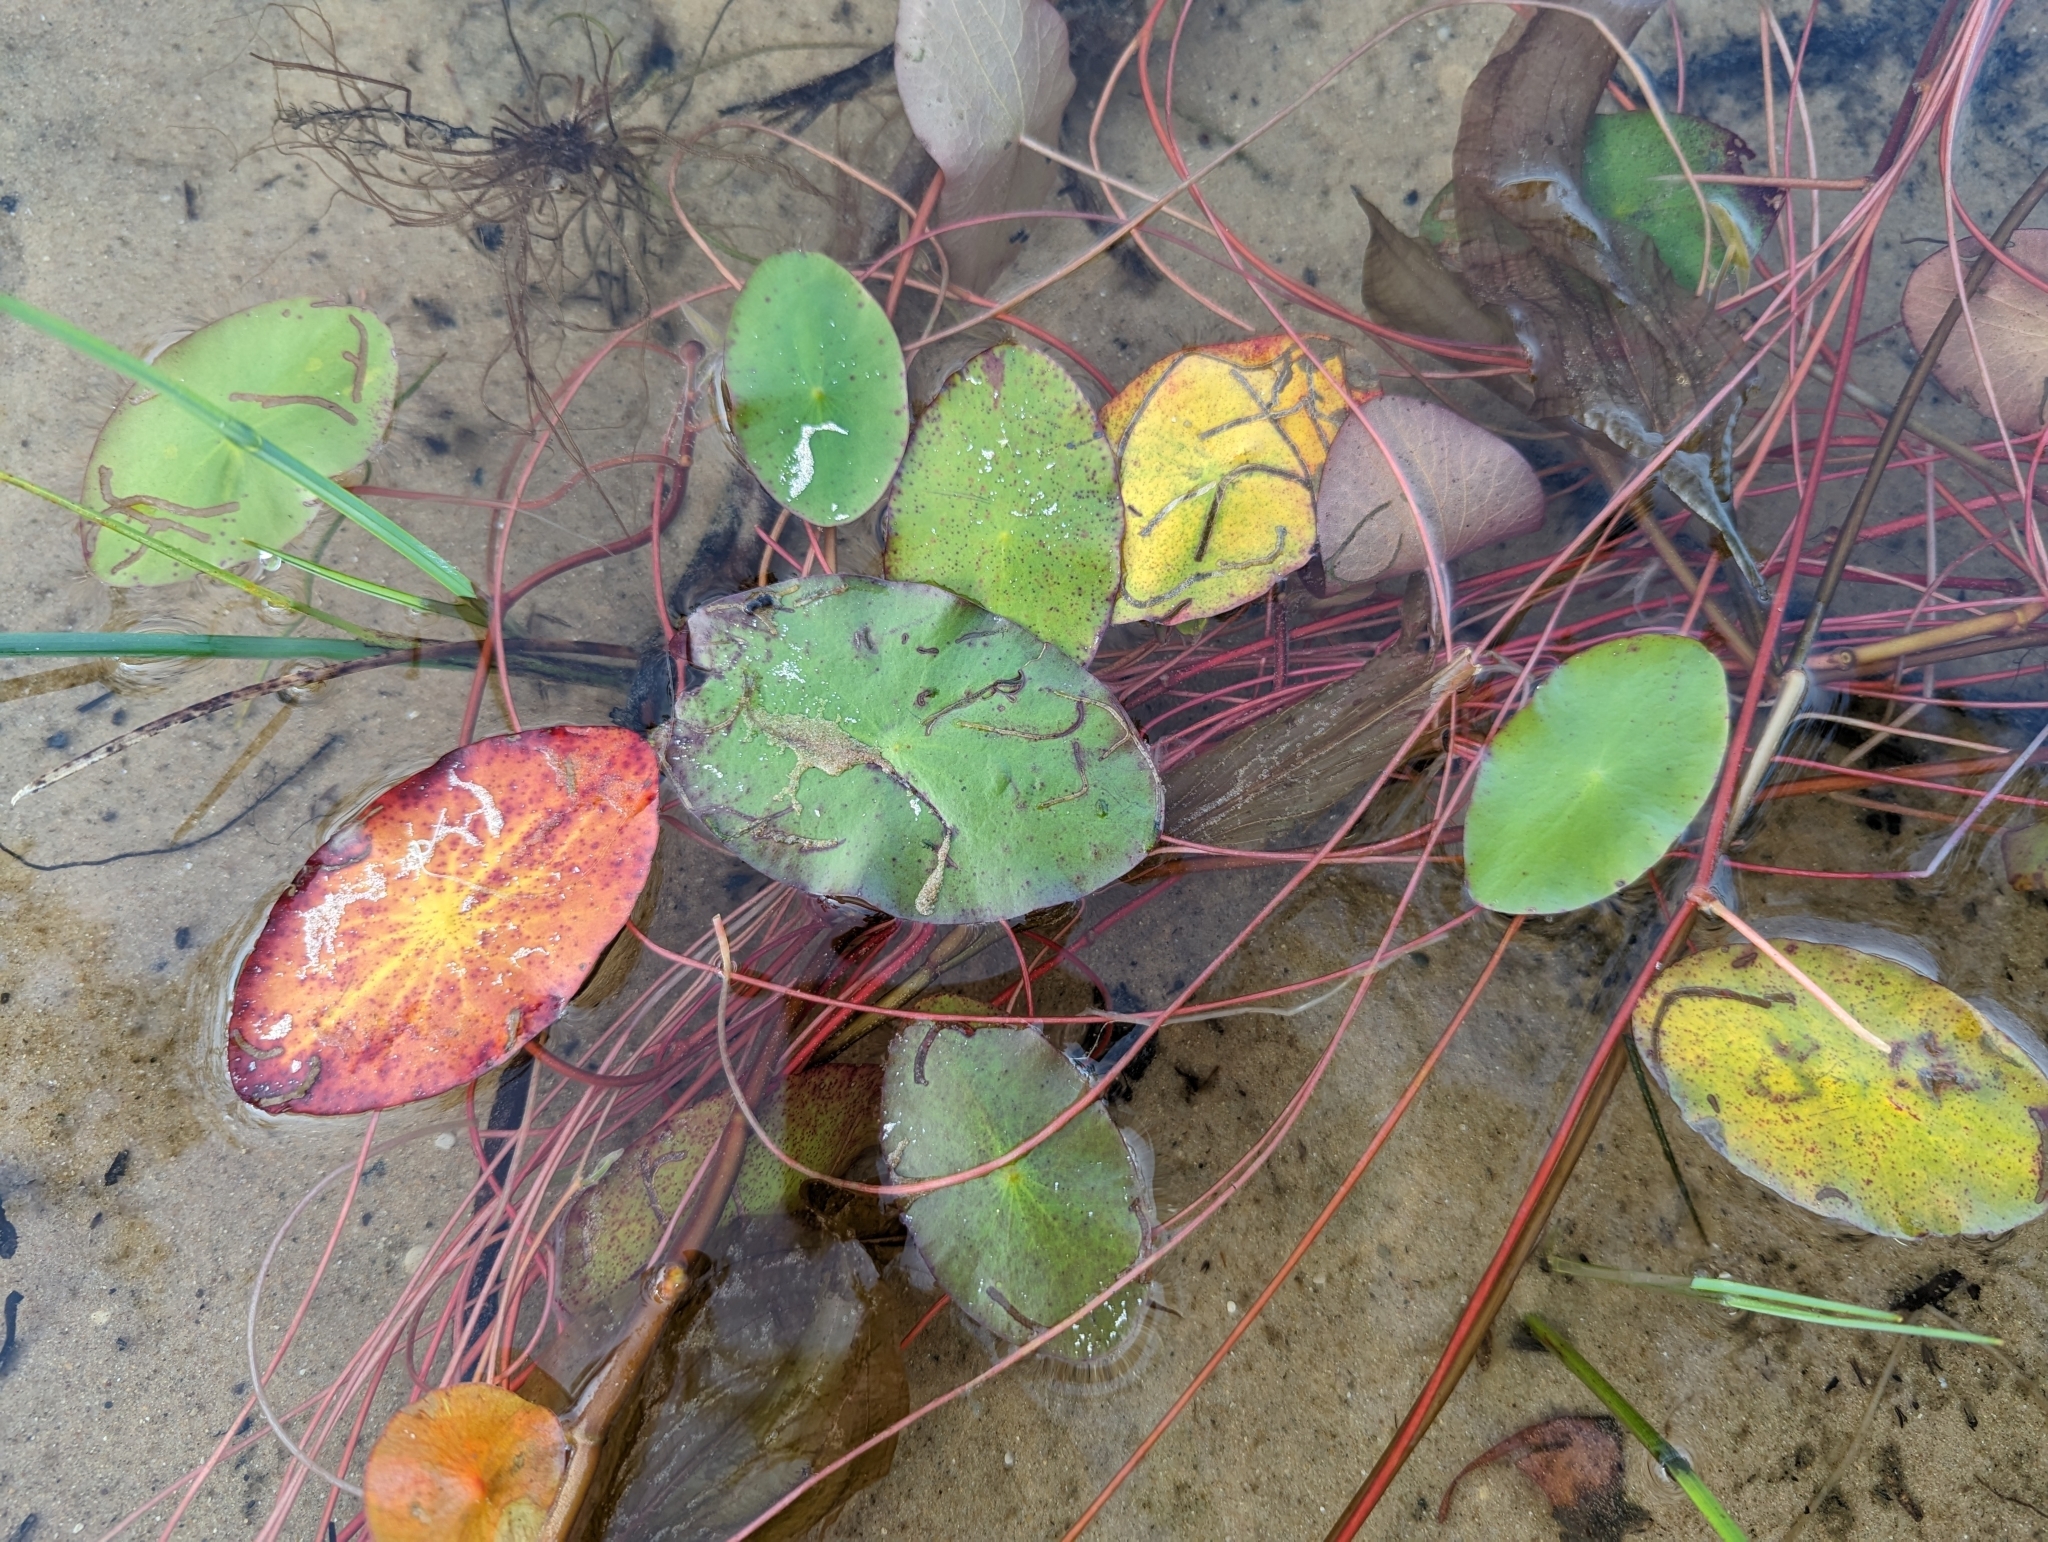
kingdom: Plantae
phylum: Tracheophyta
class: Magnoliopsida
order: Nymphaeales
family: Cabombaceae
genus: Brasenia
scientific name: Brasenia schreberi
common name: Water-shield
